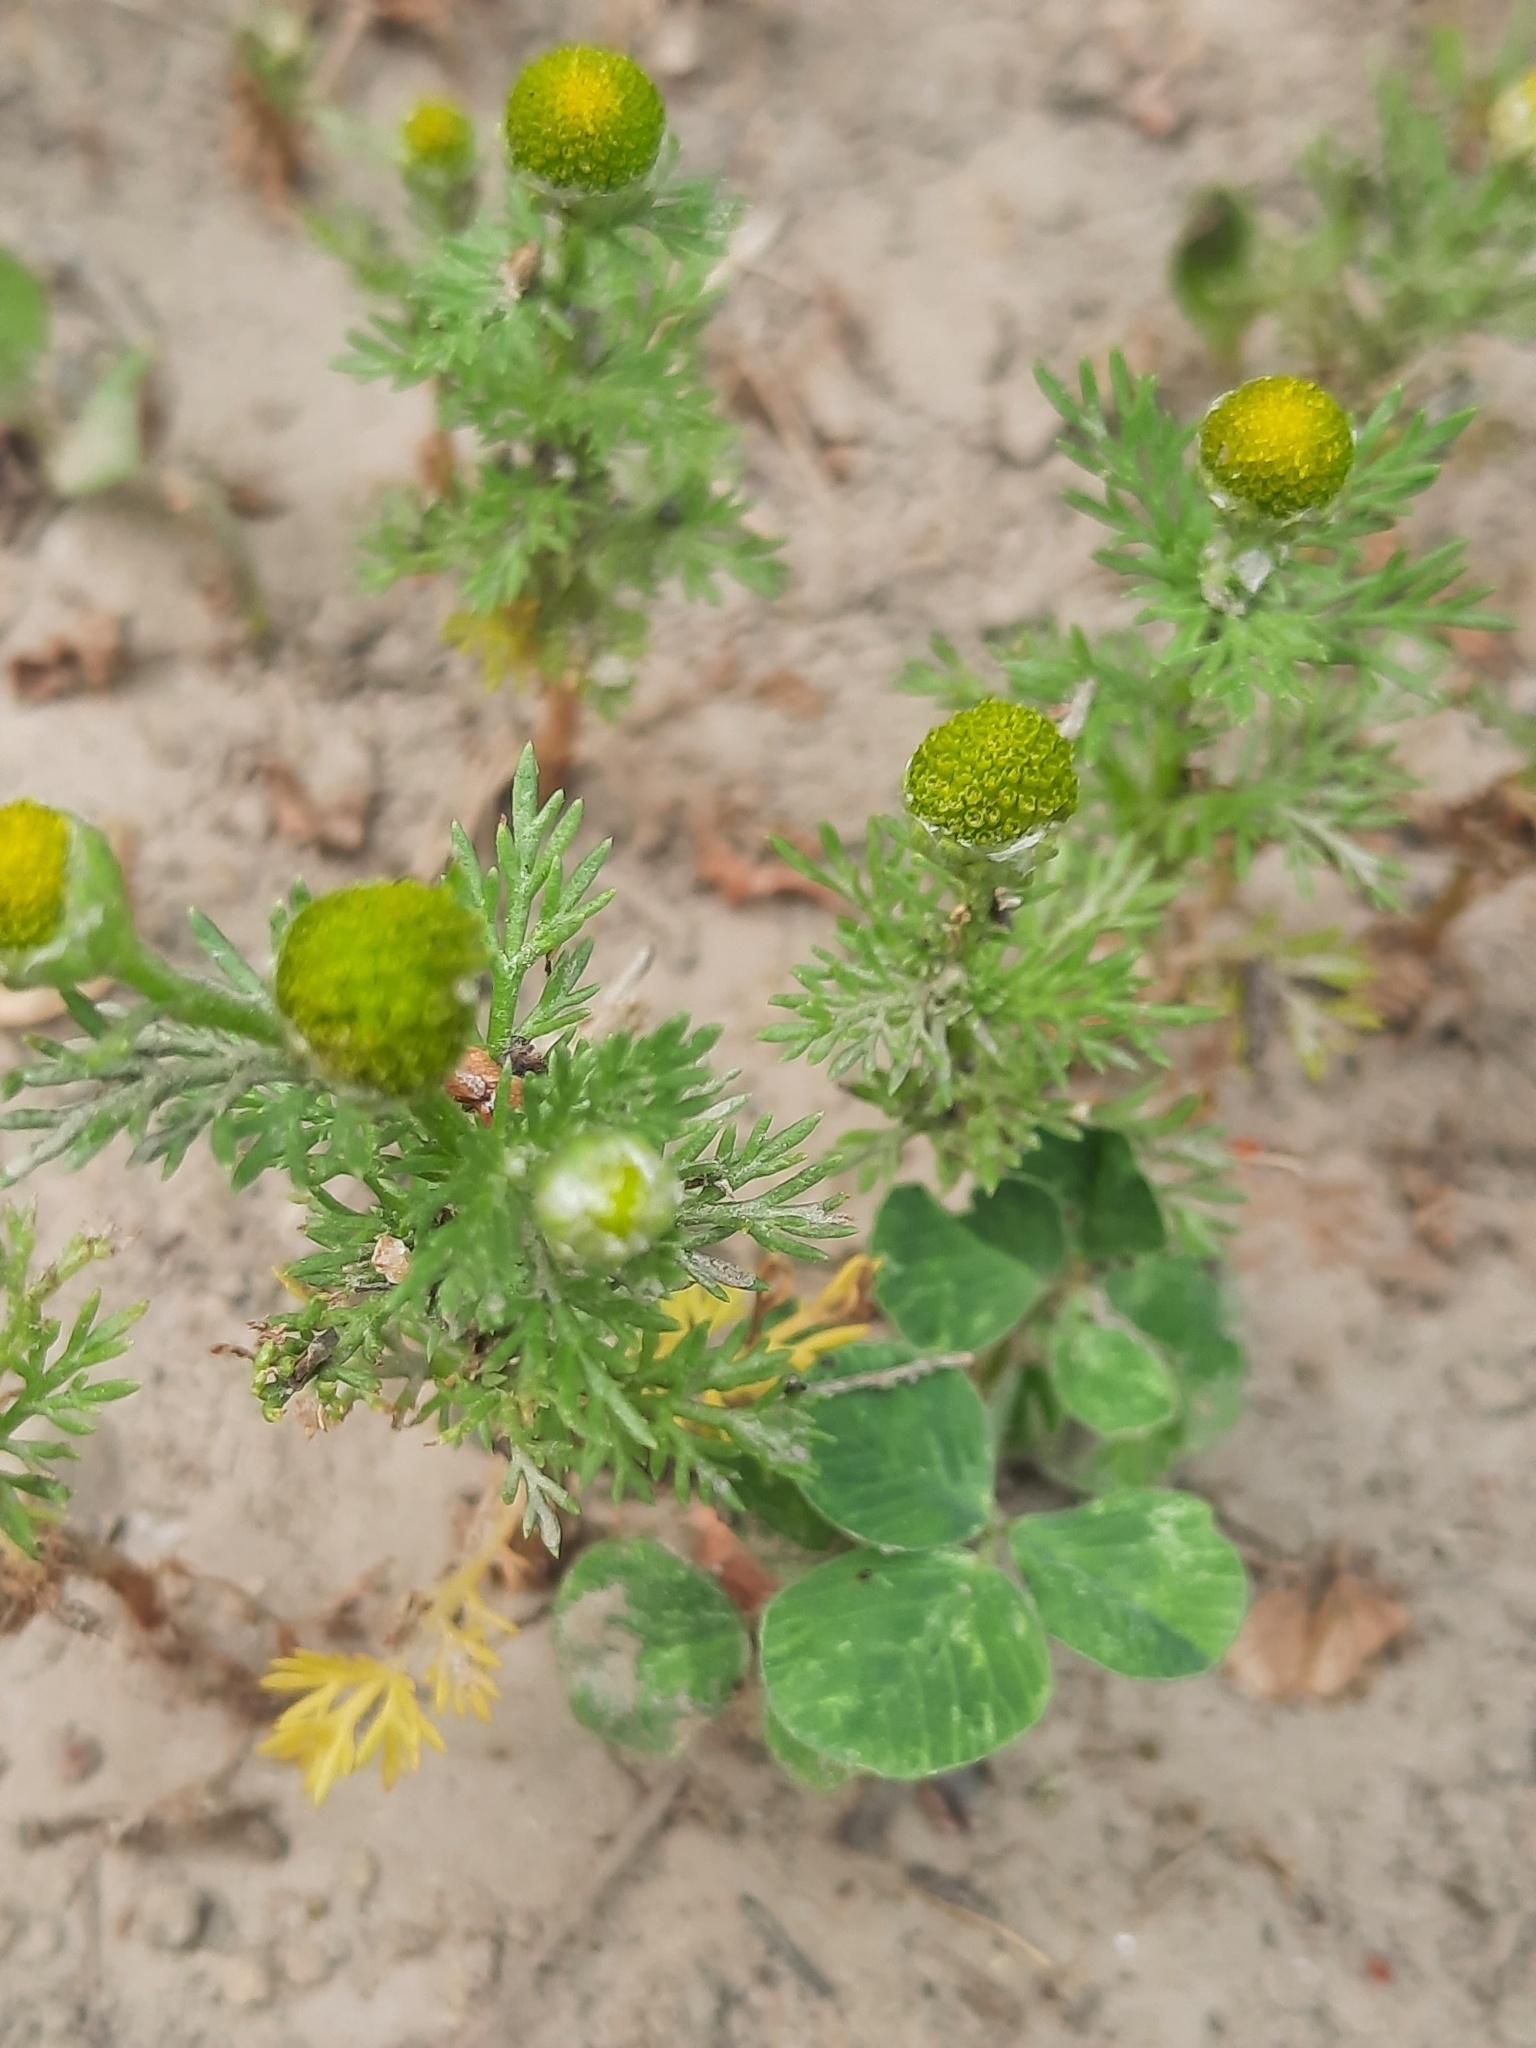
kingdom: Plantae
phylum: Tracheophyta
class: Magnoliopsida
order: Asterales
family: Asteraceae
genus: Matricaria
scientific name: Matricaria discoidea
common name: Disc mayweed
